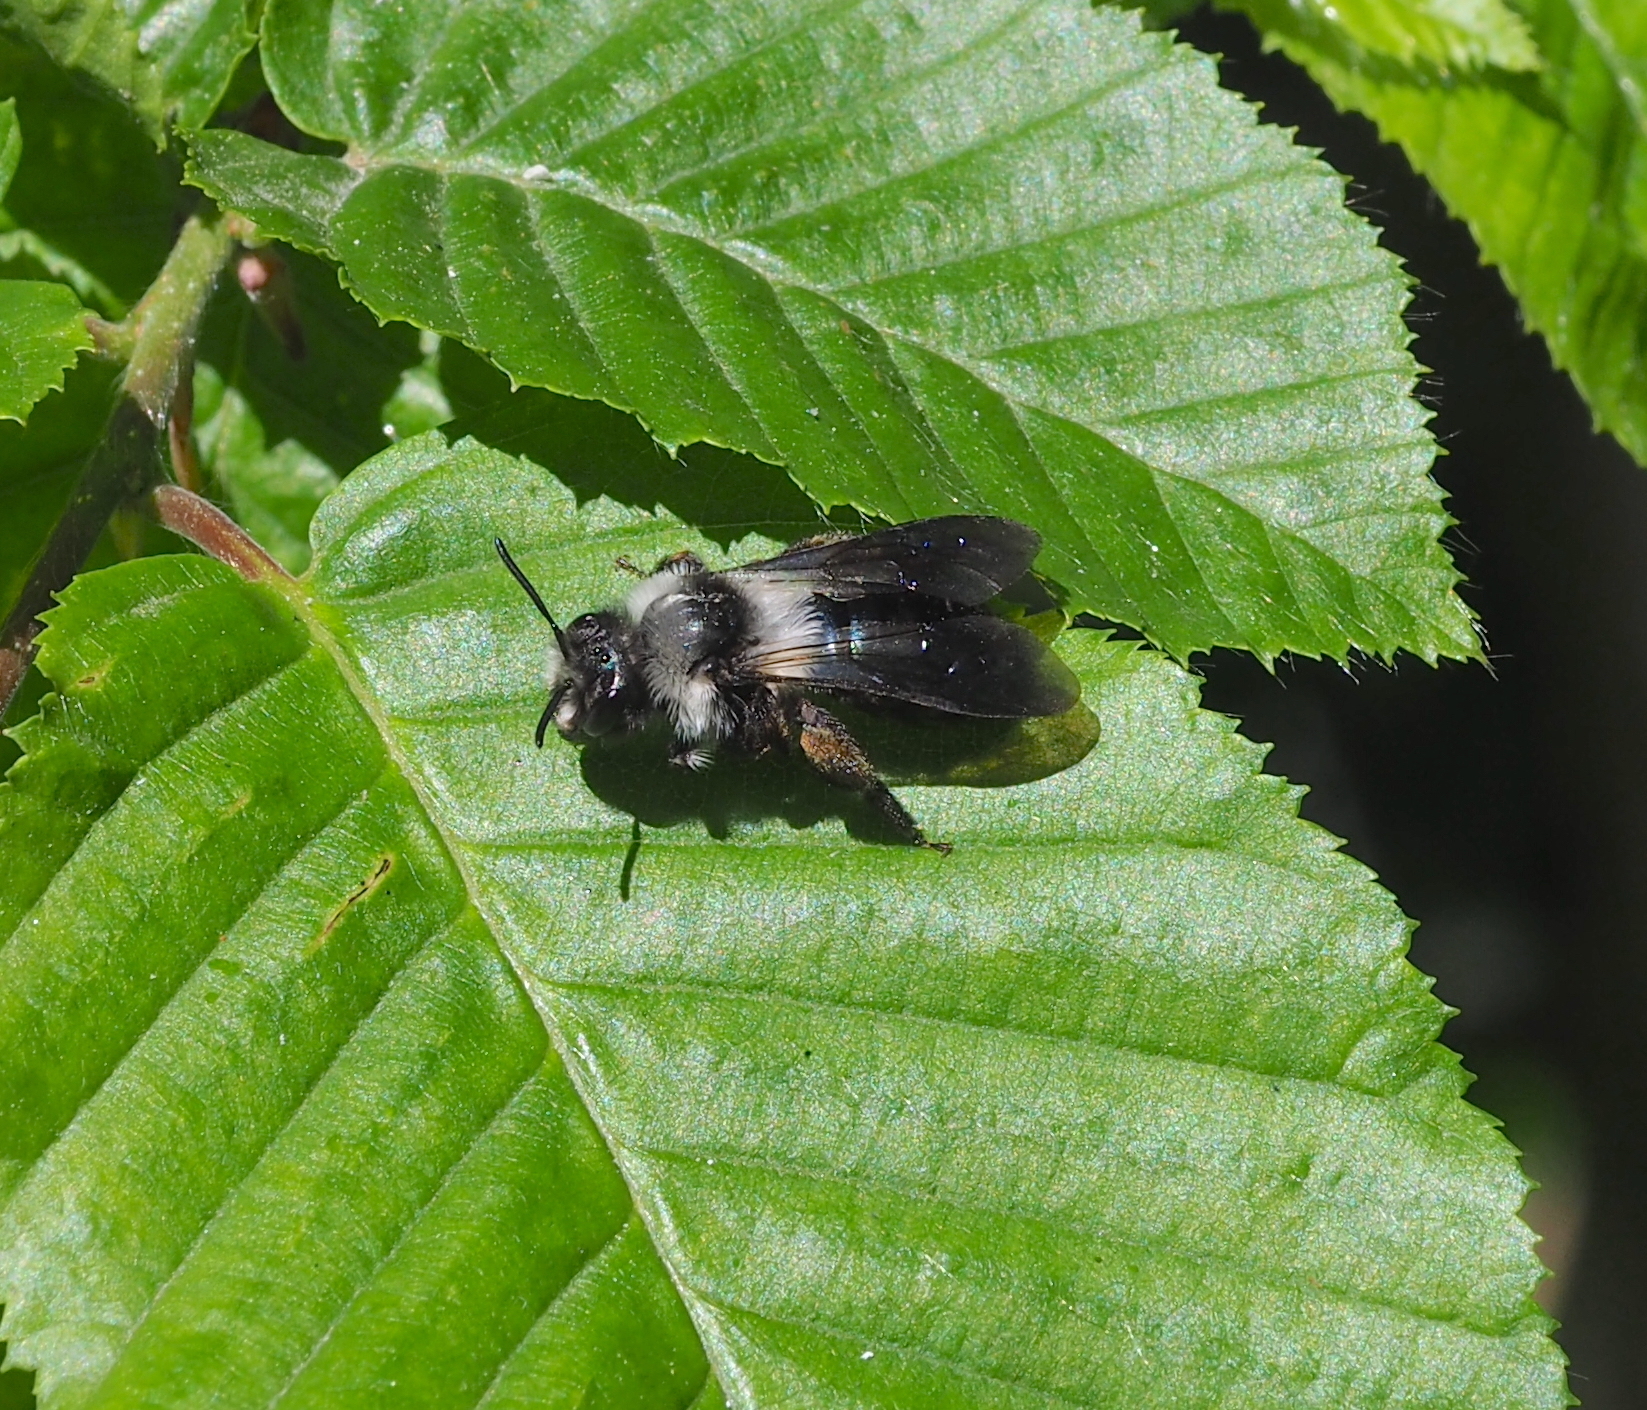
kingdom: Animalia
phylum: Arthropoda
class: Insecta
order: Hymenoptera
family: Andrenidae
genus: Andrena
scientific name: Andrena cineraria
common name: Ashy mining bee
